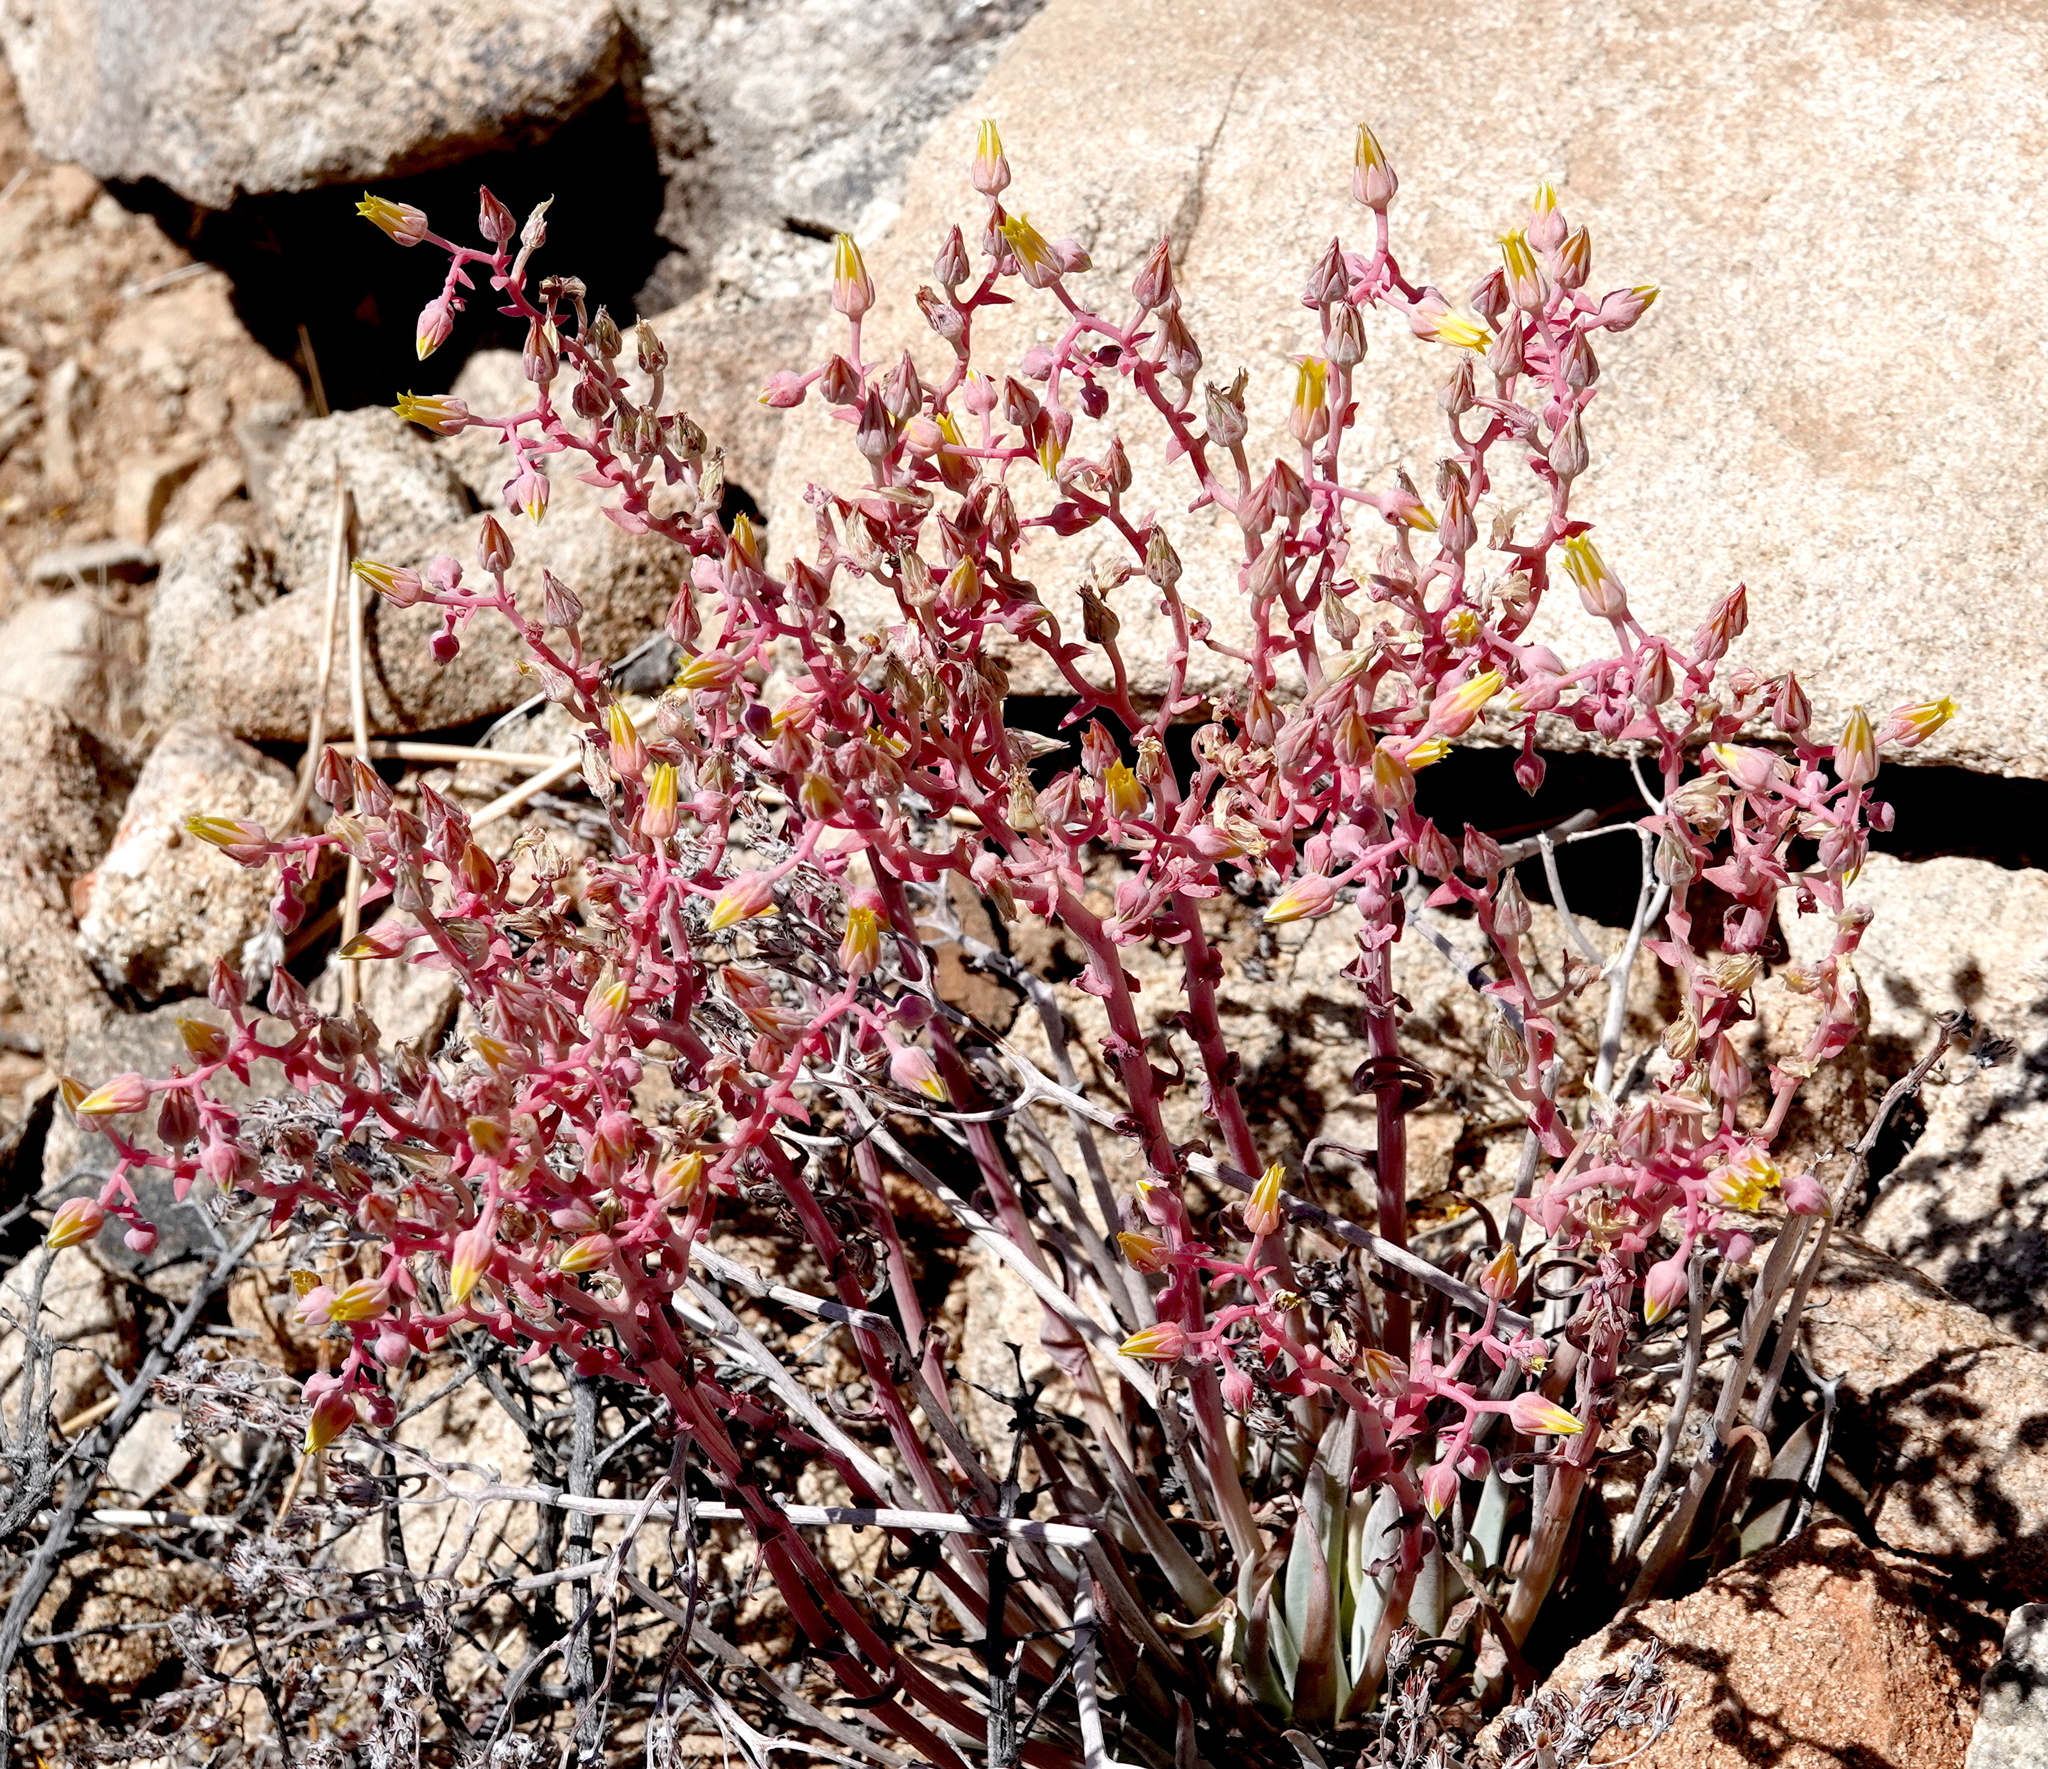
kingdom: Plantae
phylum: Tracheophyta
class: Magnoliopsida
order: Saxifragales
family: Crassulaceae
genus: Dudleya
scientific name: Dudleya saxosa
